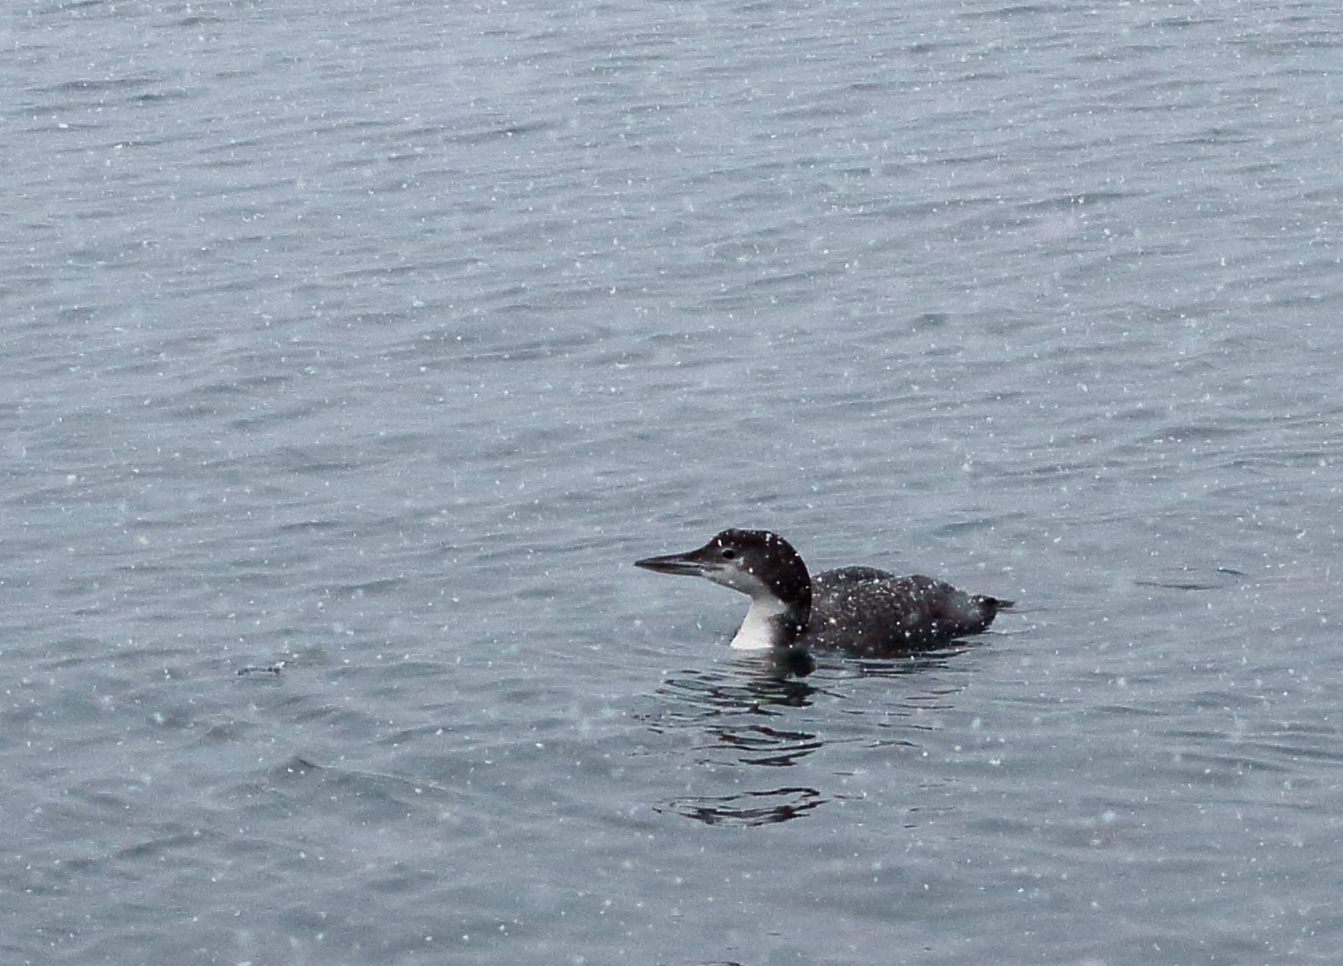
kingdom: Animalia
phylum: Chordata
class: Aves
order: Gaviiformes
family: Gaviidae
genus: Gavia
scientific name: Gavia immer
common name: Common loon
